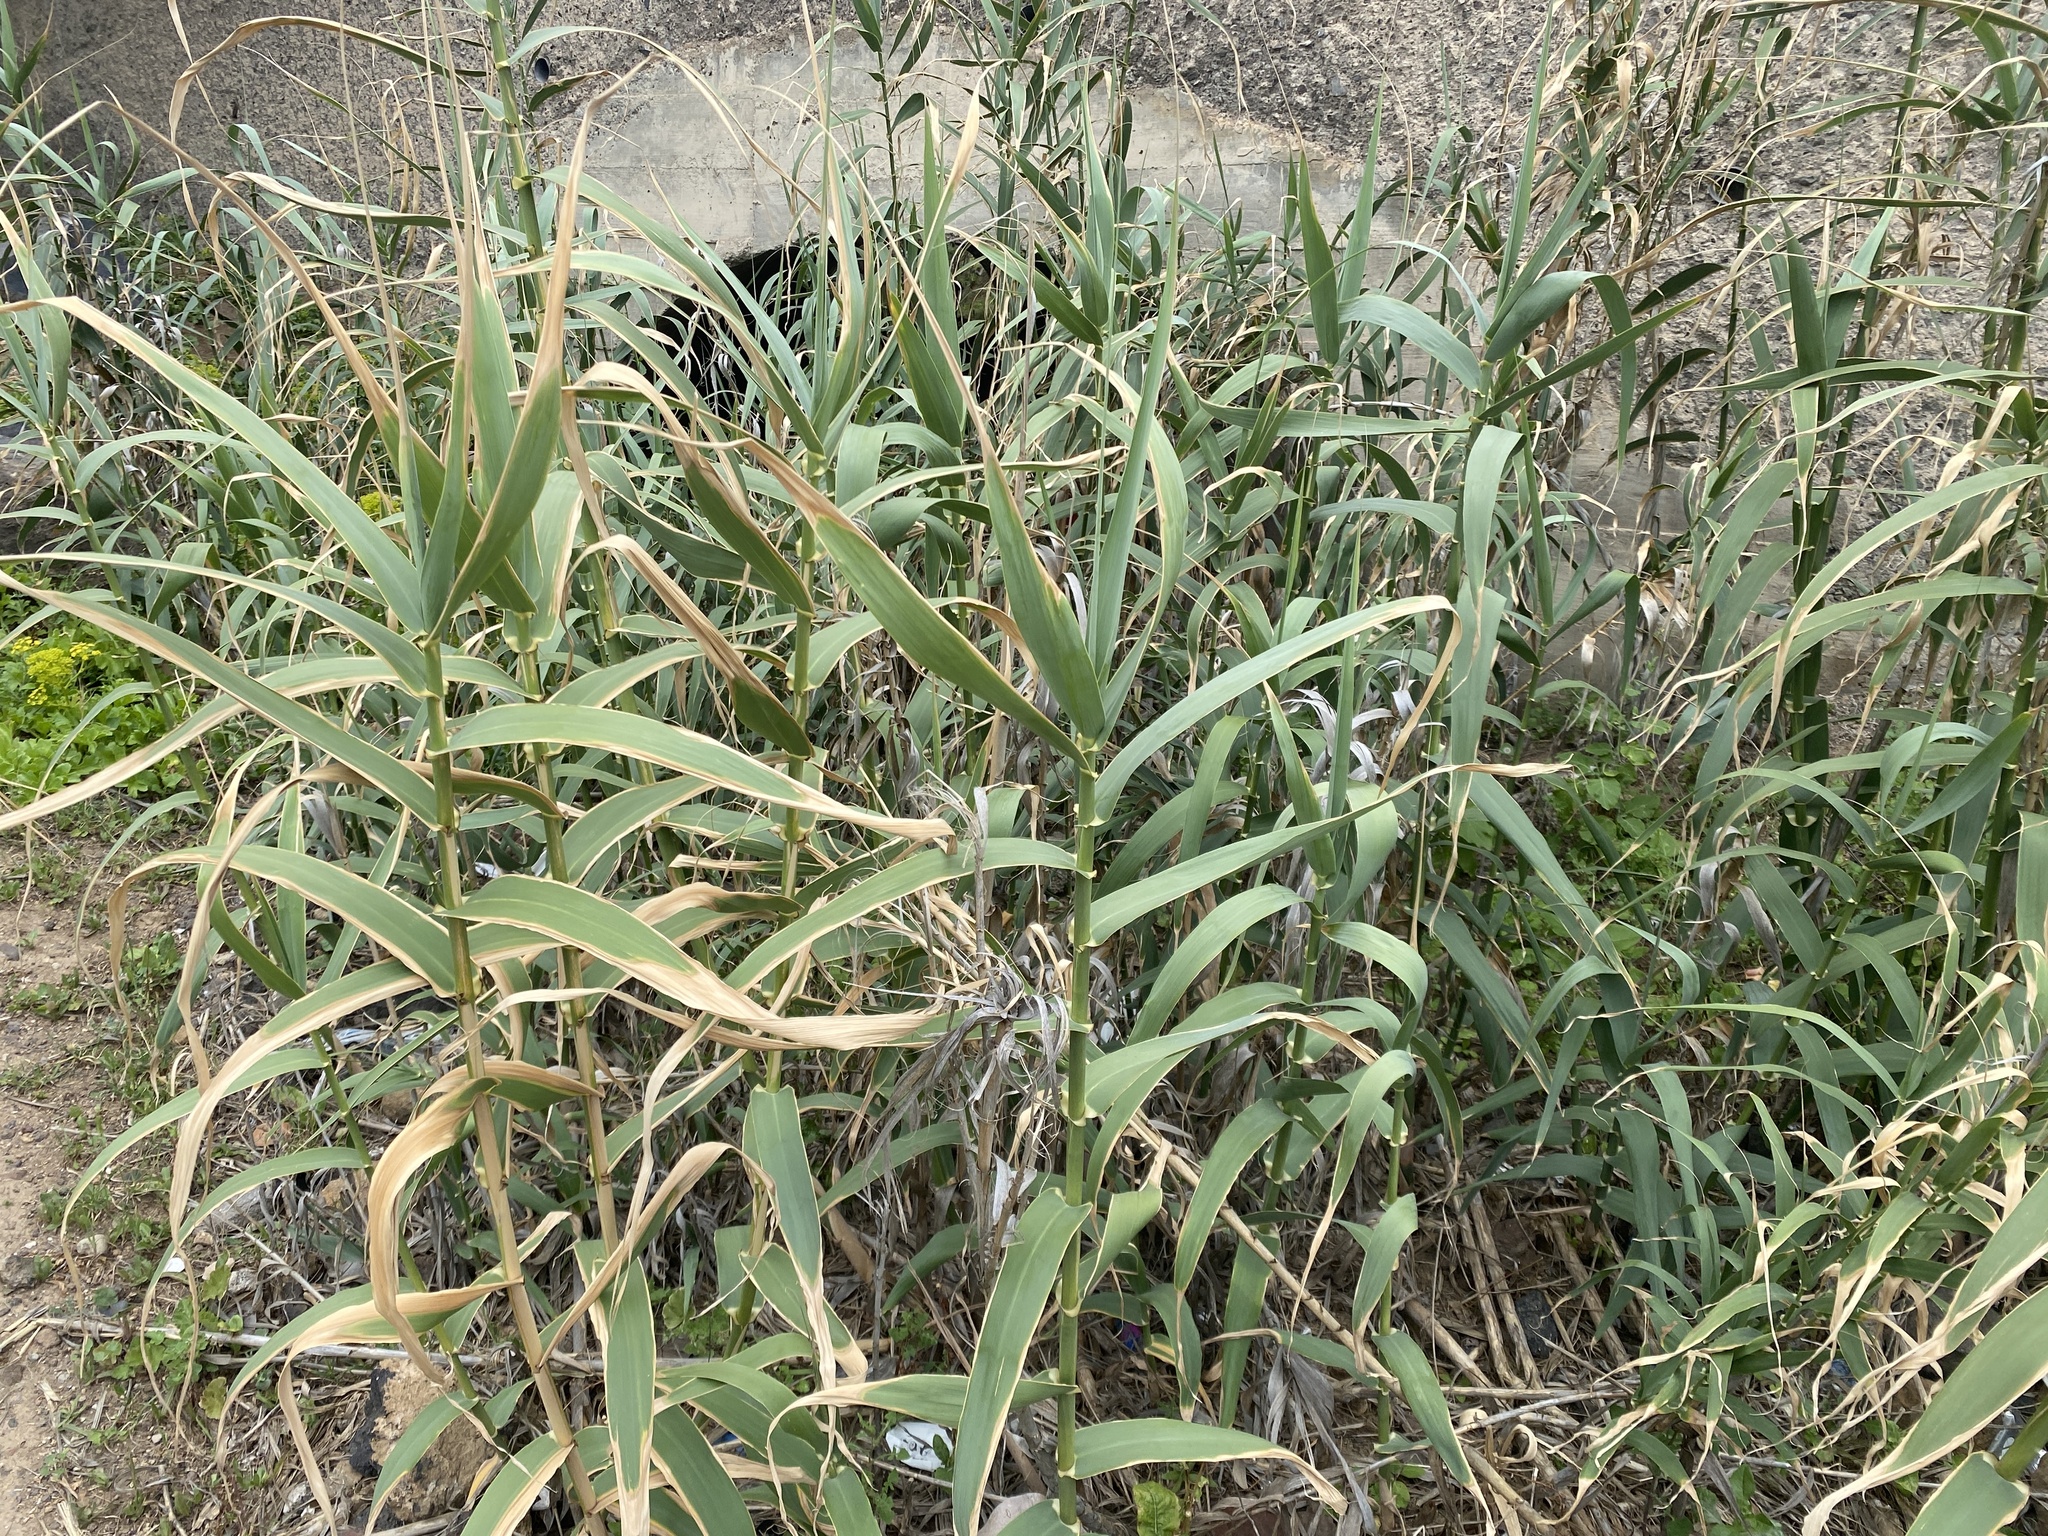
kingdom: Plantae
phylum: Tracheophyta
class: Liliopsida
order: Poales
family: Poaceae
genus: Arundo
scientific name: Arundo donax
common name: Giant reed
